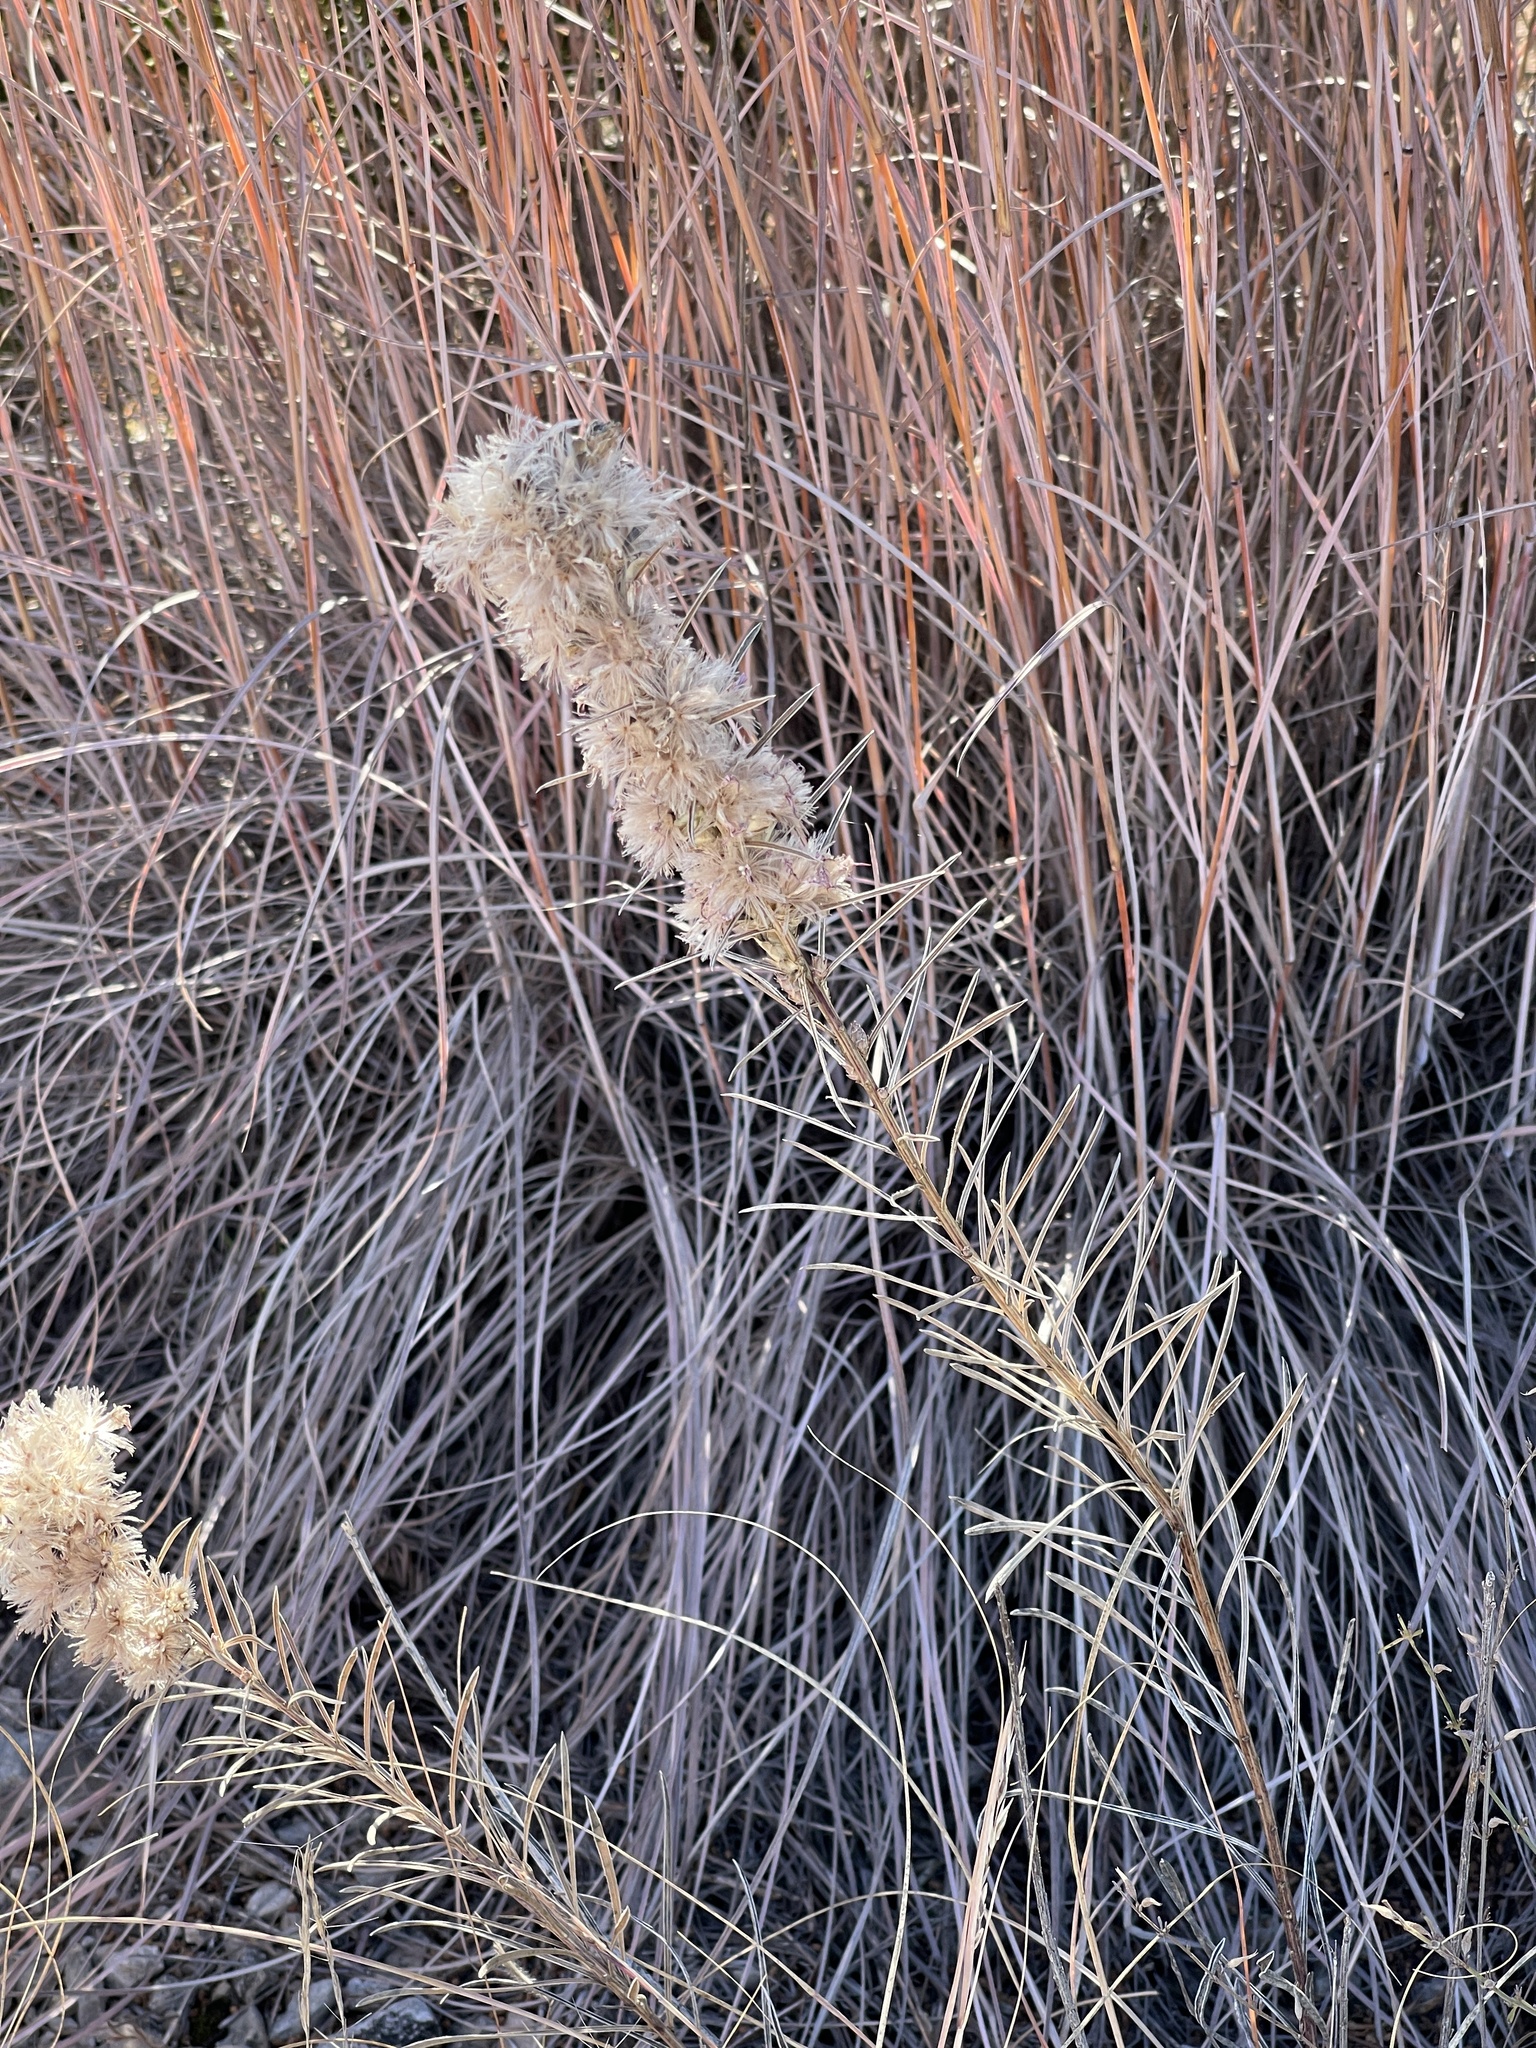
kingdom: Plantae
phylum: Tracheophyta
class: Magnoliopsida
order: Asterales
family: Asteraceae
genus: Liatris
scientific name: Liatris punctata
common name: Dotted gayfeather
